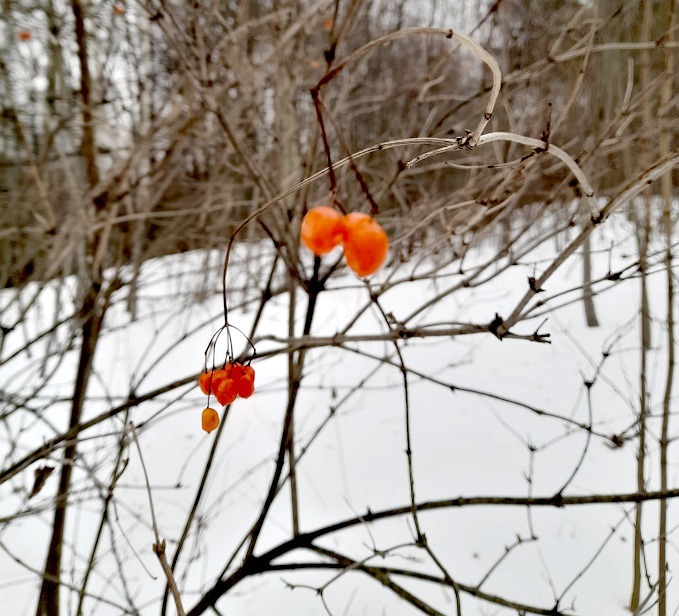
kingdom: Plantae
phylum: Tracheophyta
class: Magnoliopsida
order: Dipsacales
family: Viburnaceae
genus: Viburnum
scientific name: Viburnum opulus
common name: Guelder-rose
